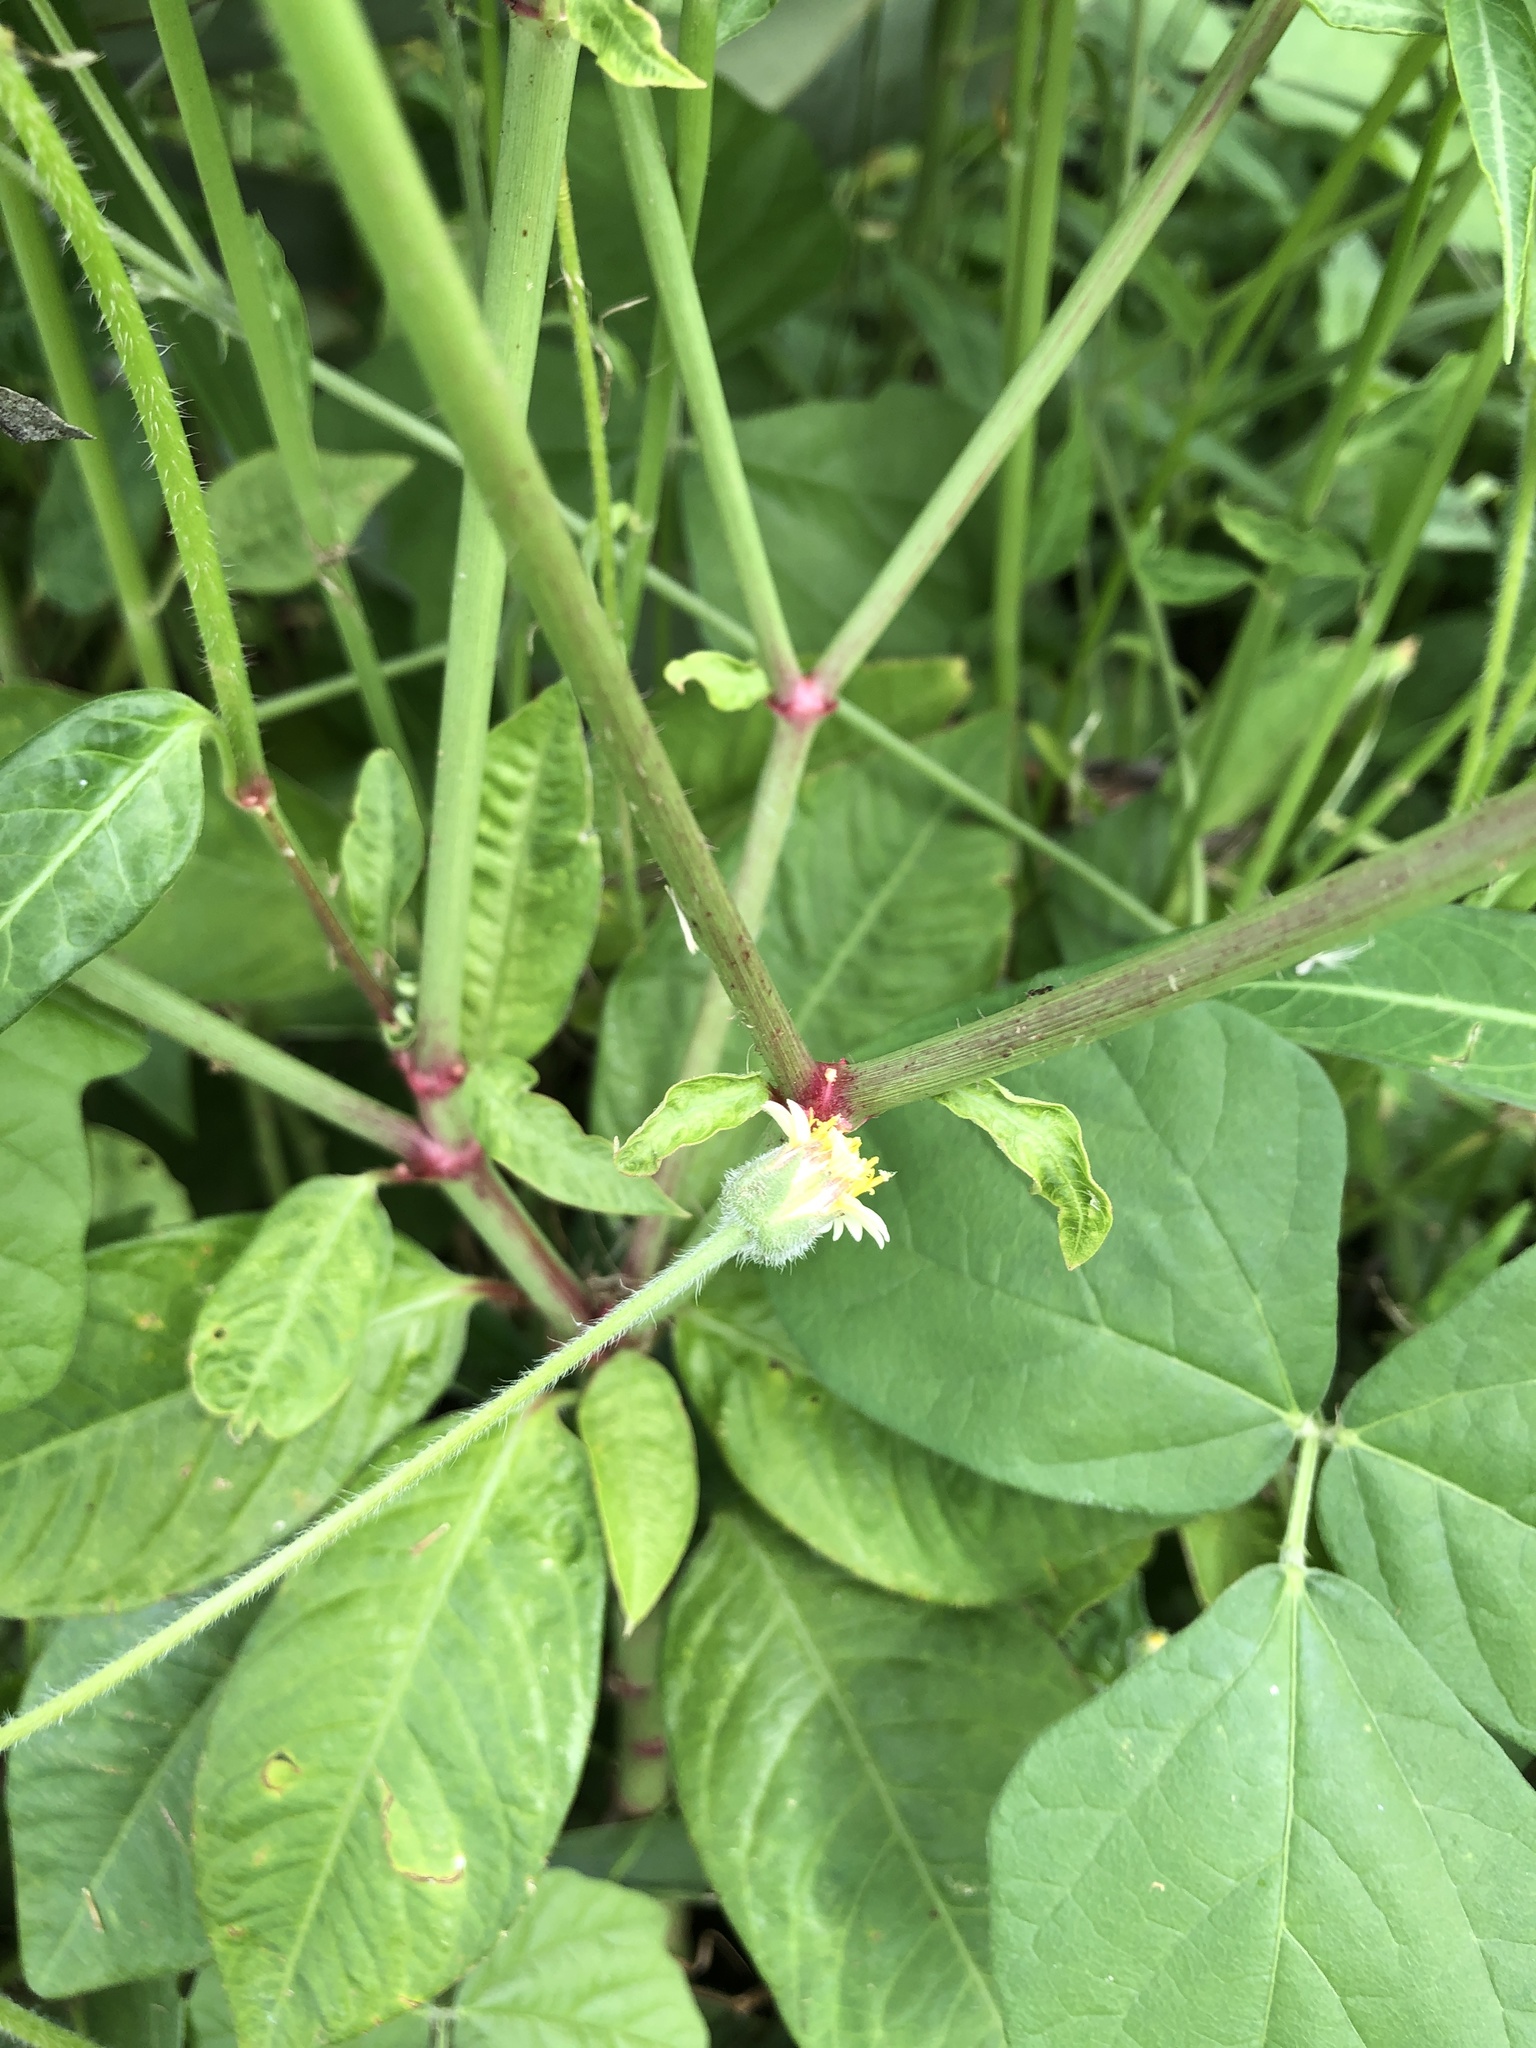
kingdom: Plantae
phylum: Tracheophyta
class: Magnoliopsida
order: Malpighiales
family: Euphorbiaceae
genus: Euphorbia
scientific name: Euphorbia heterophylla
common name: Mexican fireplant
